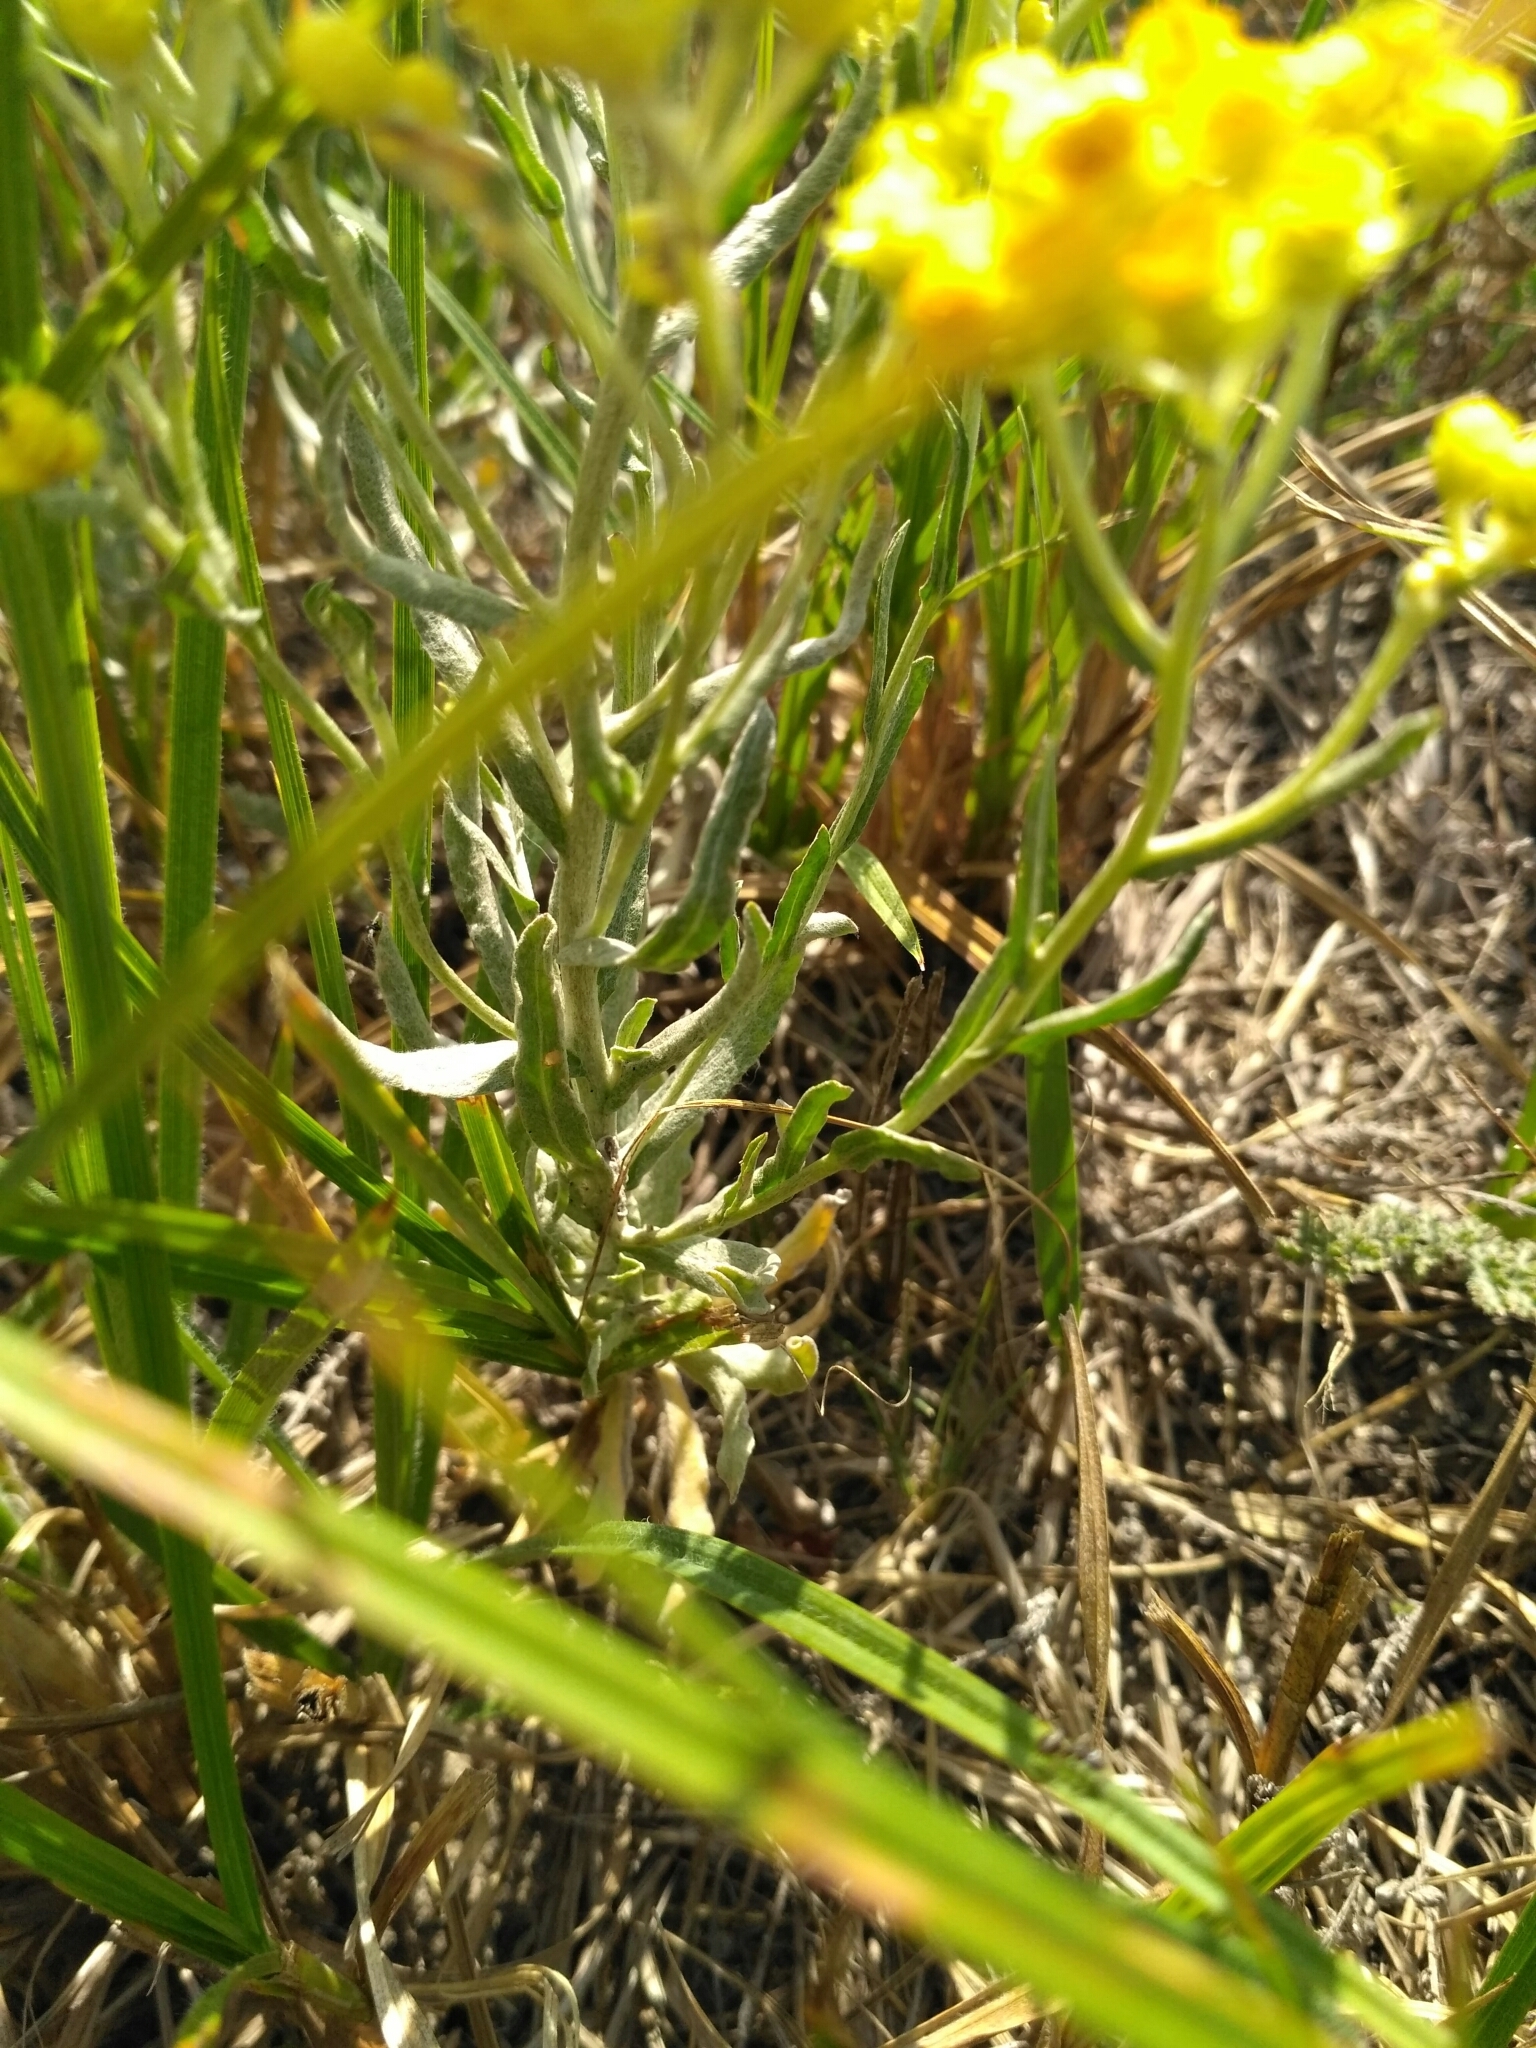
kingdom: Plantae
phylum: Tracheophyta
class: Magnoliopsida
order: Asterales
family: Asteraceae
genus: Helichrysum
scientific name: Helichrysum arenarium
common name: Strawflower
